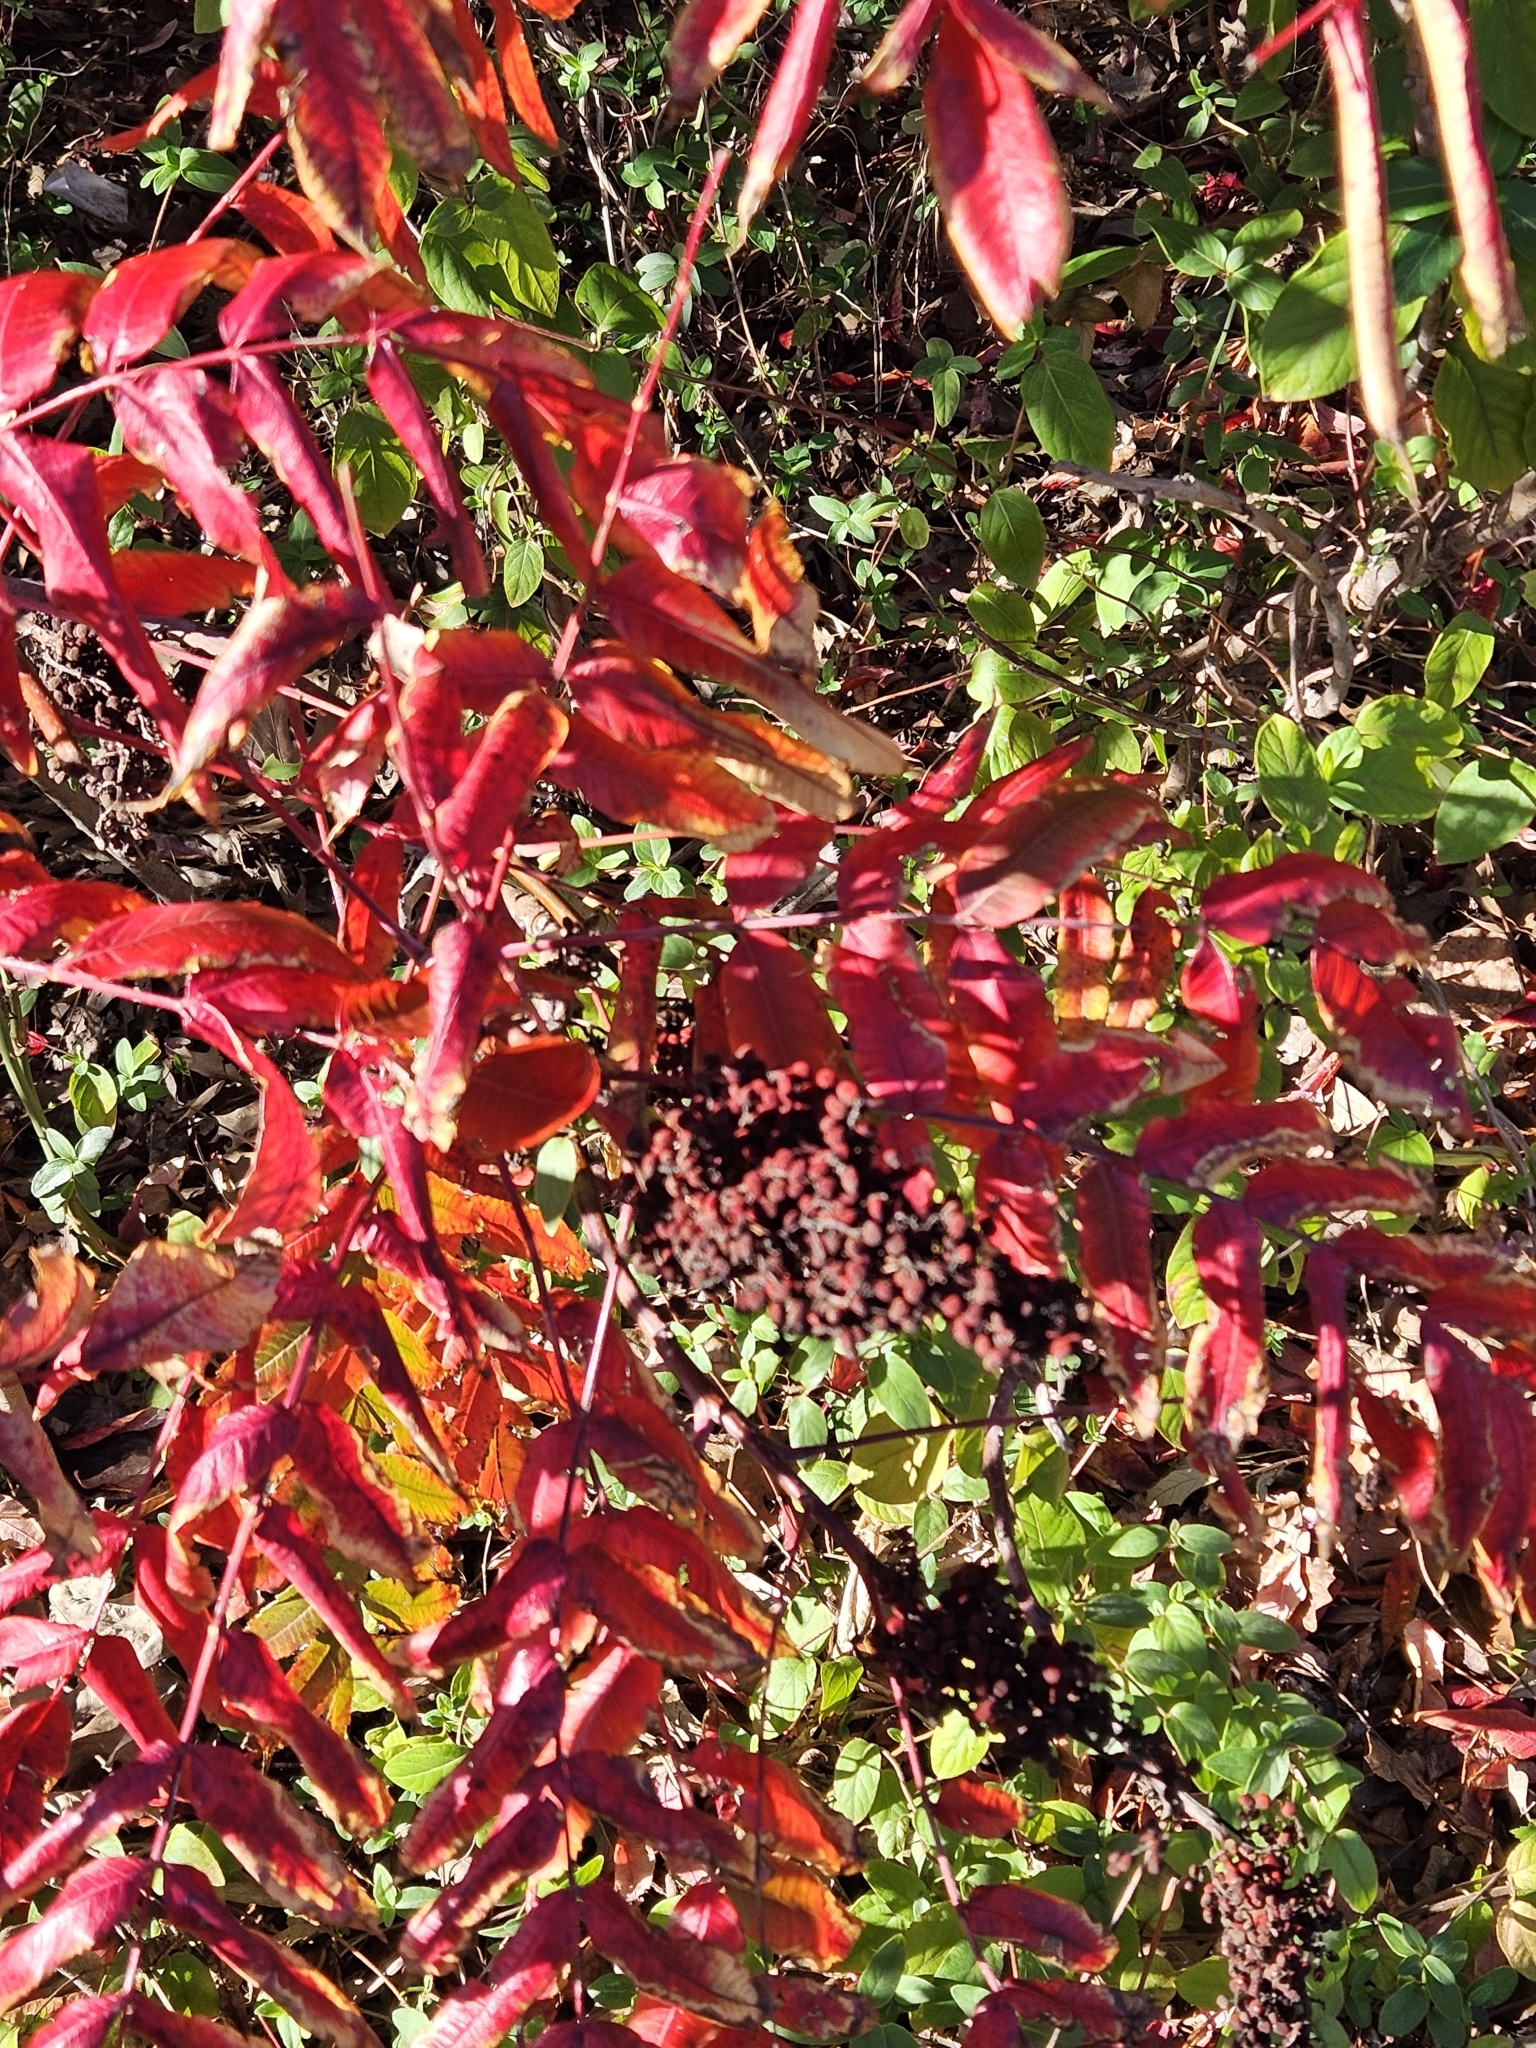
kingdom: Plantae
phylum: Tracheophyta
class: Magnoliopsida
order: Sapindales
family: Anacardiaceae
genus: Rhus
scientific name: Rhus glabra
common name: Scarlet sumac
